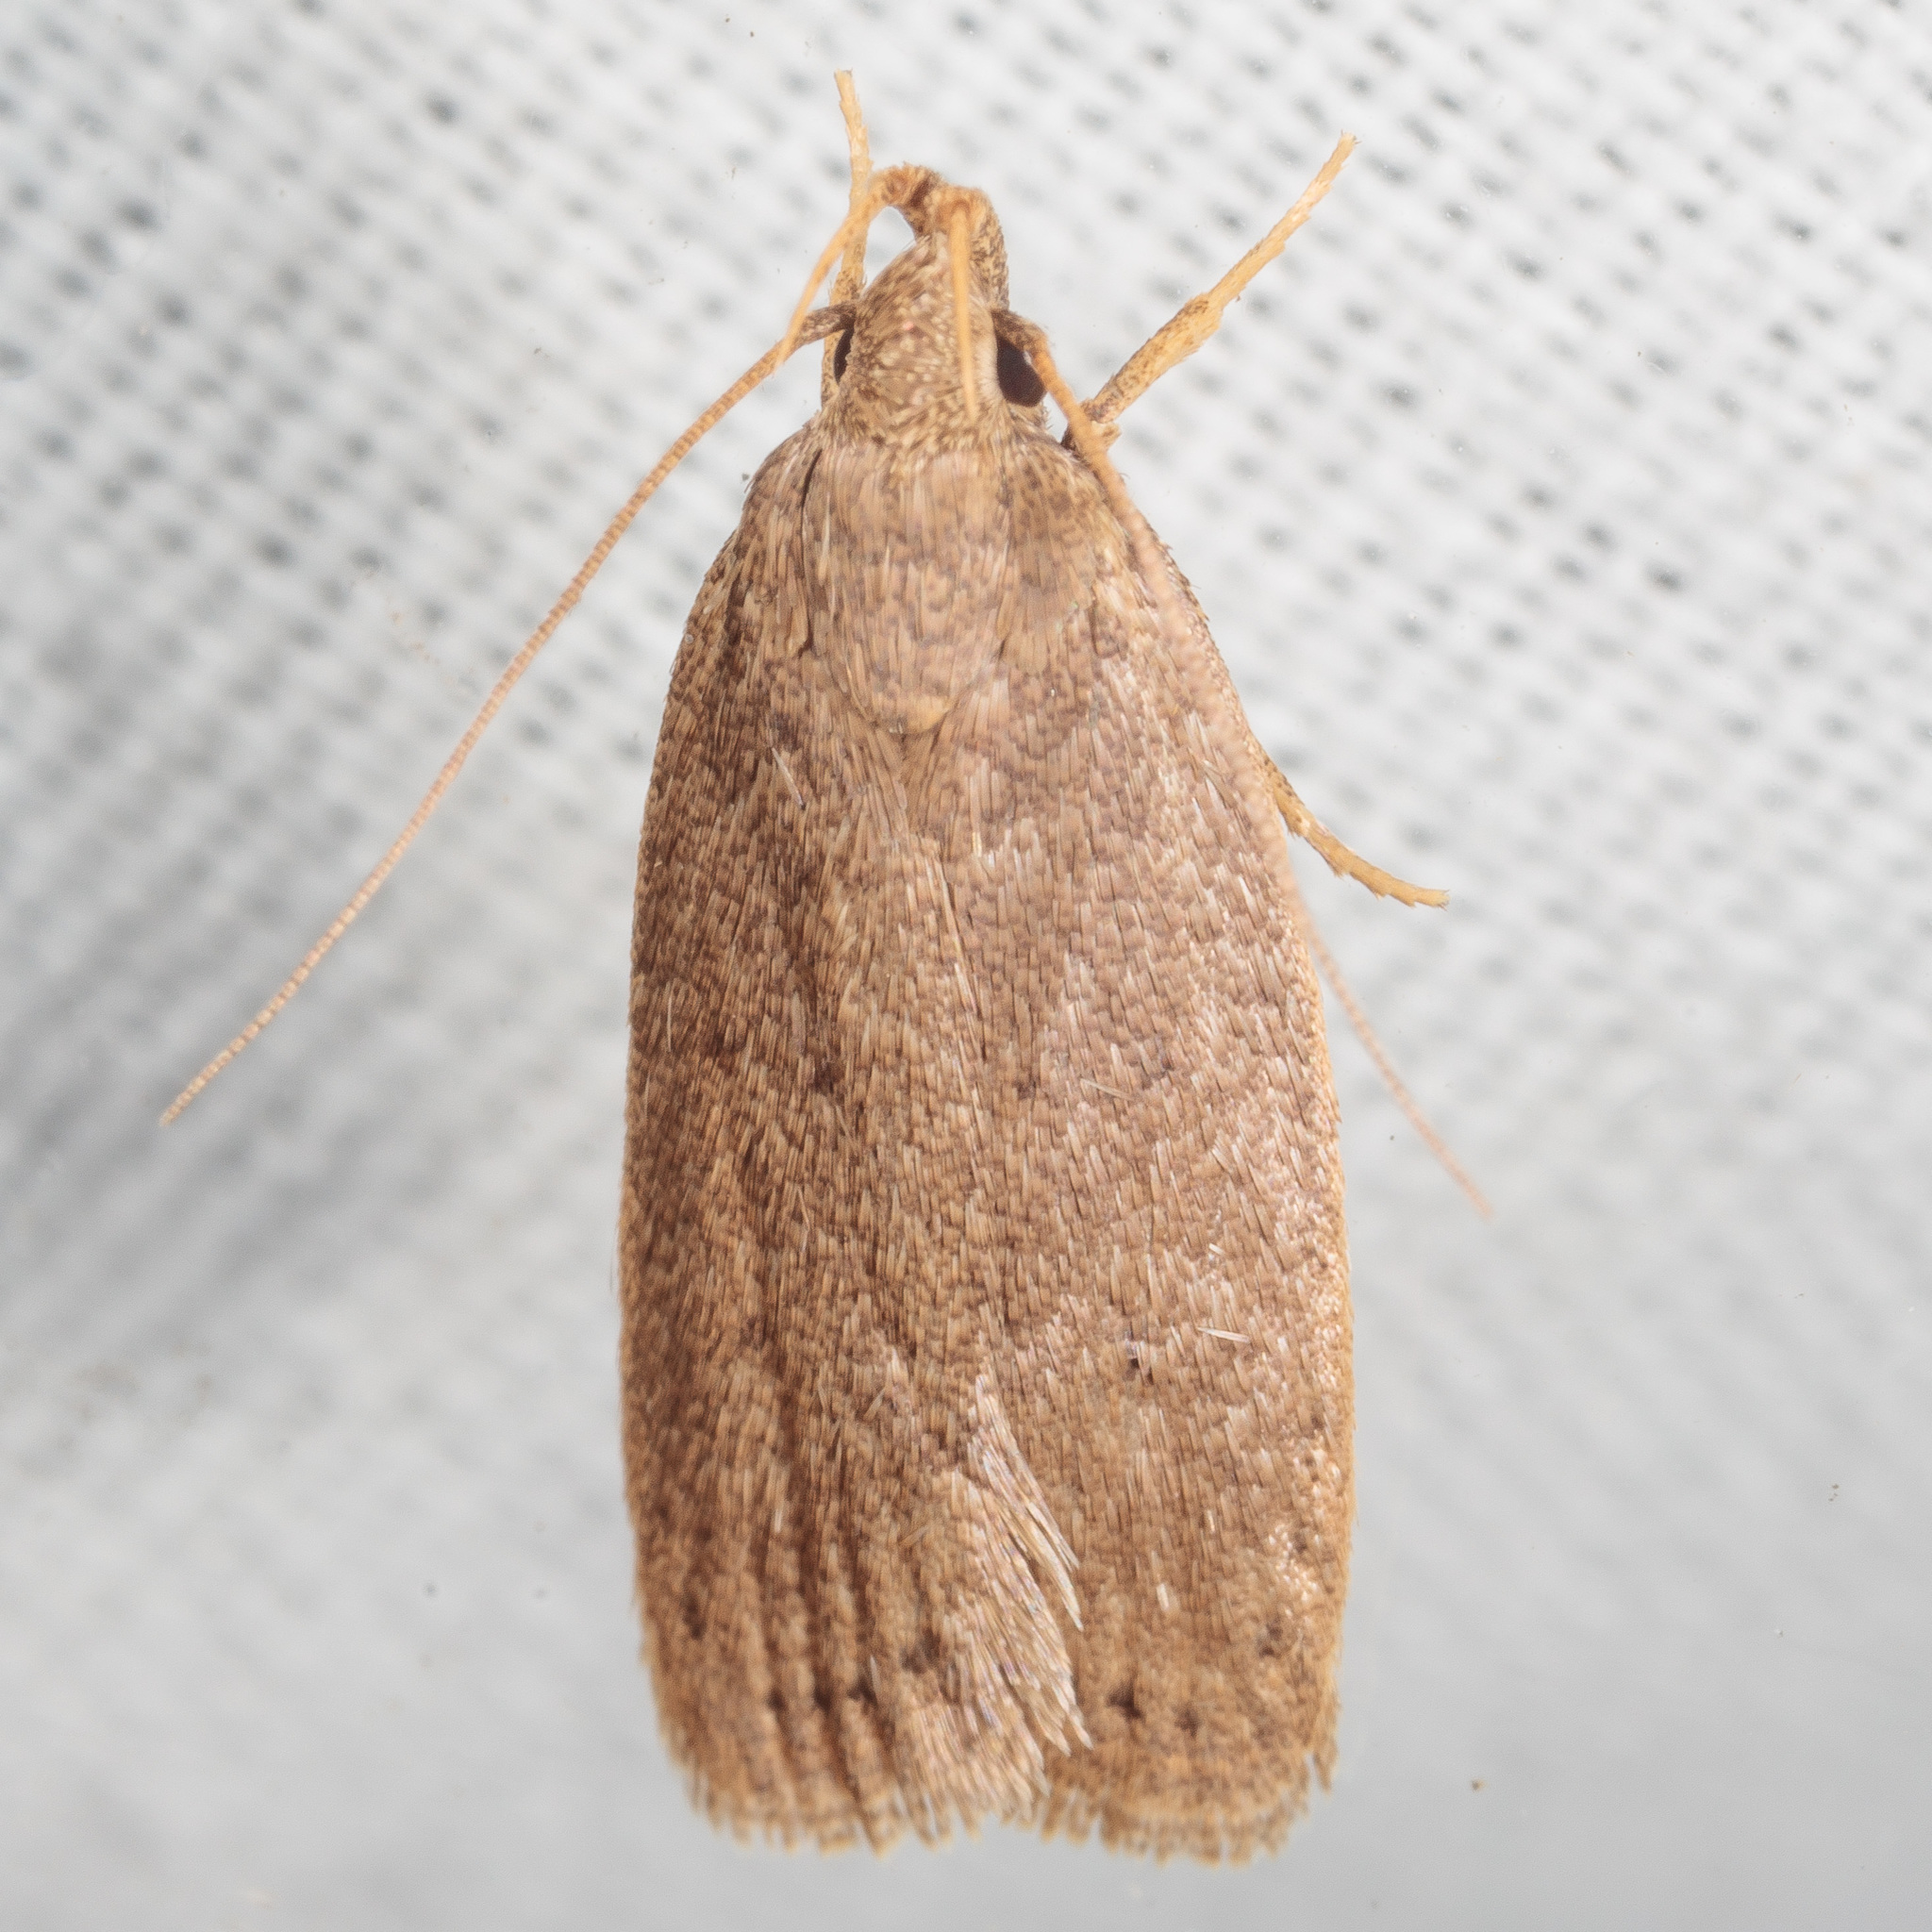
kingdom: Animalia
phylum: Arthropoda
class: Insecta
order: Lepidoptera
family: Autostichidae
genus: Autosticha
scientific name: Autosticha kyotensis
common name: Kyoto moth
